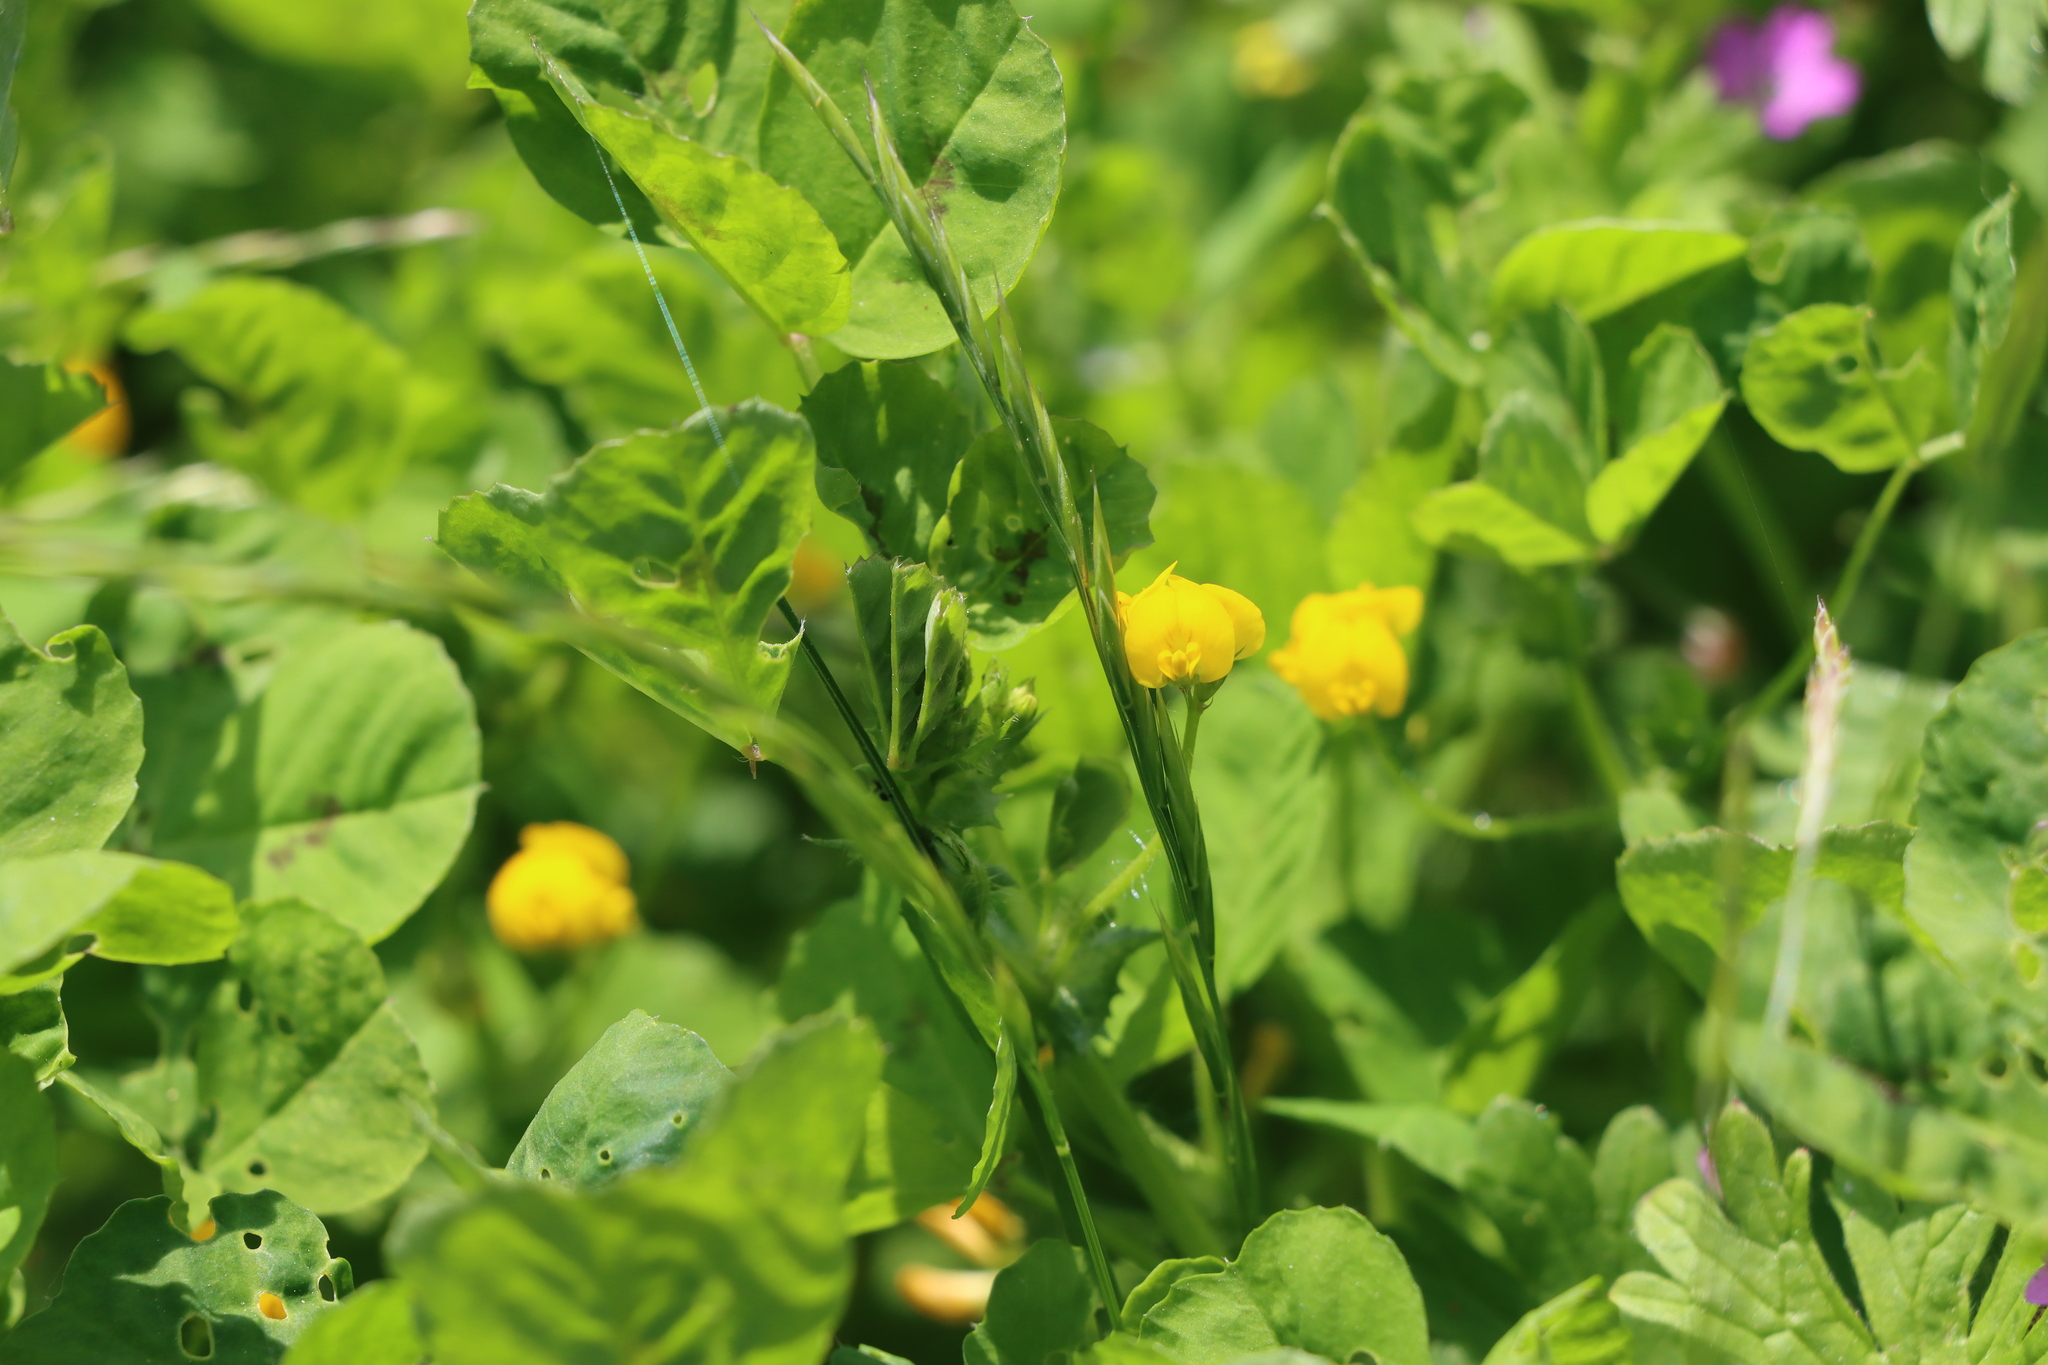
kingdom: Plantae
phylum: Tracheophyta
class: Magnoliopsida
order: Fabales
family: Fabaceae
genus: Medicago
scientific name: Medicago arabica
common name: Spotted medick
